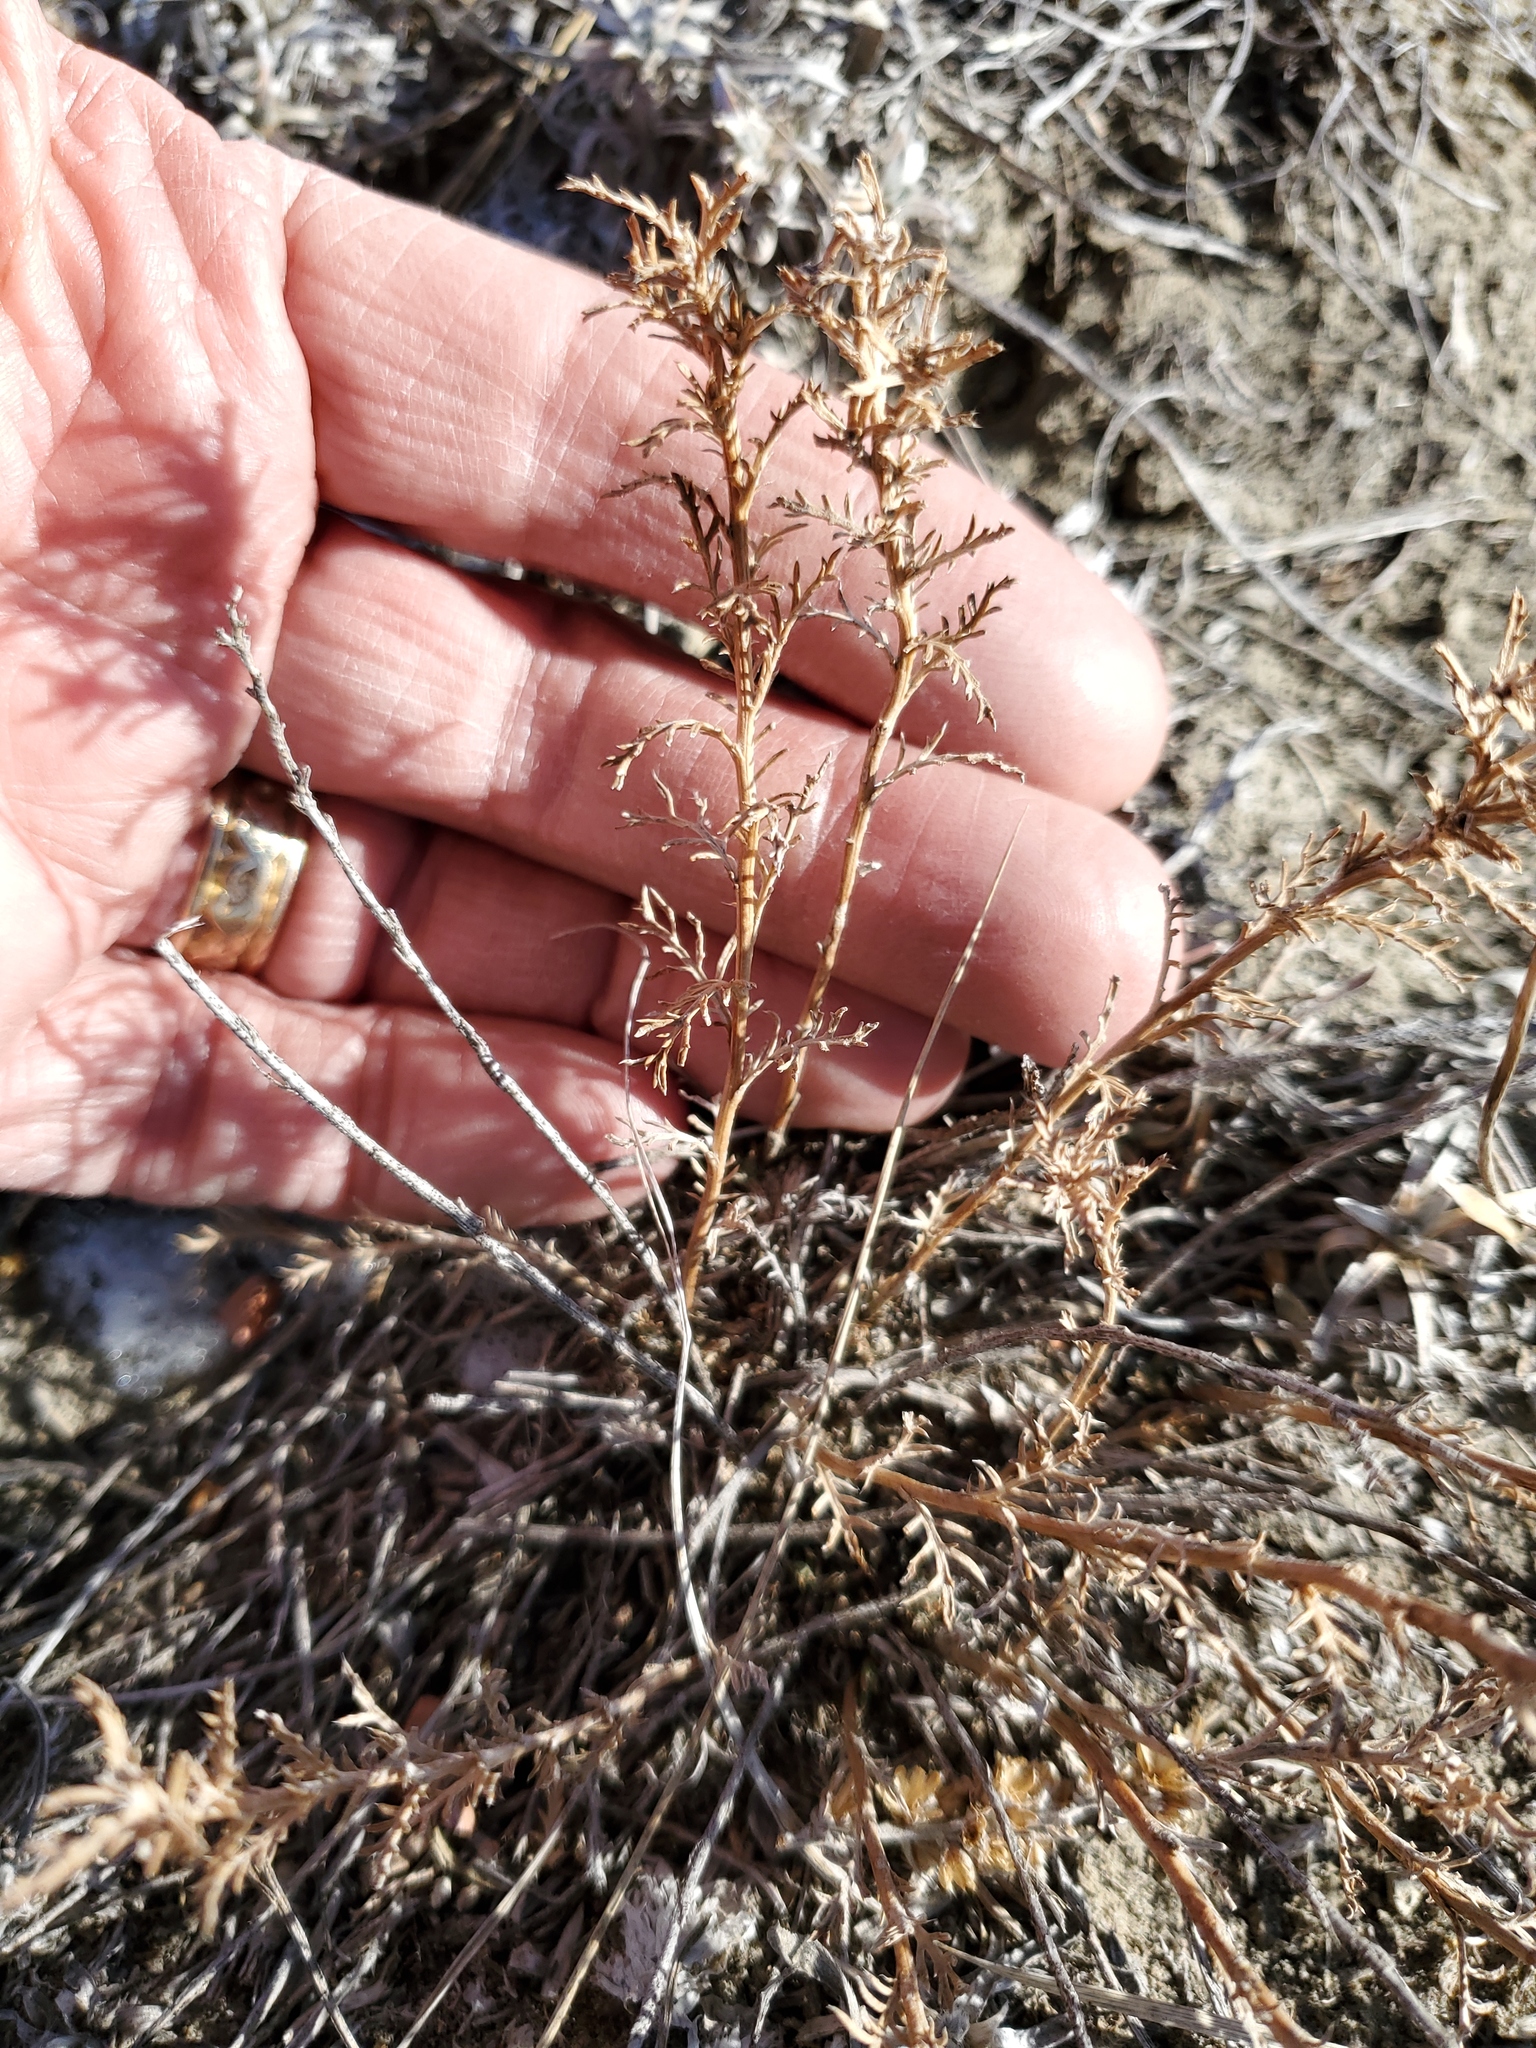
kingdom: Plantae
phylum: Tracheophyta
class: Magnoliopsida
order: Asterales
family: Asteraceae
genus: Xanthisma
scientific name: Xanthisma spinulosum
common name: Spiny goldenweed
